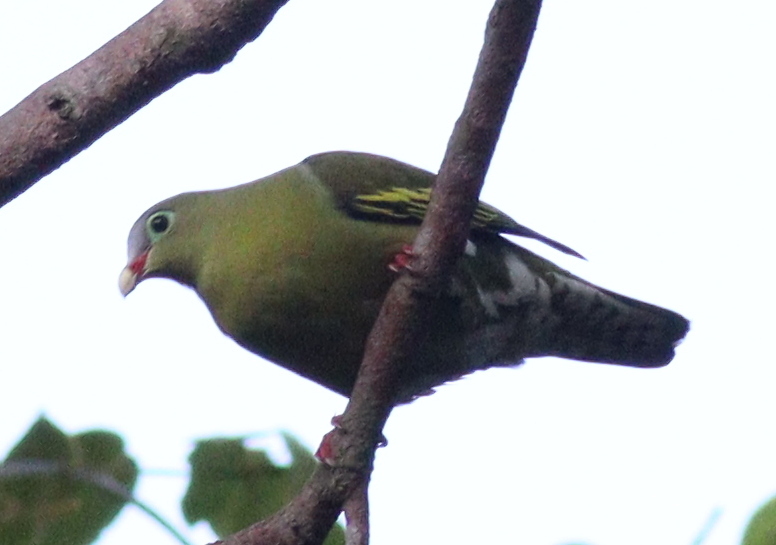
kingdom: Animalia
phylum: Chordata
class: Aves
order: Columbiformes
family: Columbidae
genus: Treron
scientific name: Treron curvirostra
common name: Thick-billed green pigeon
